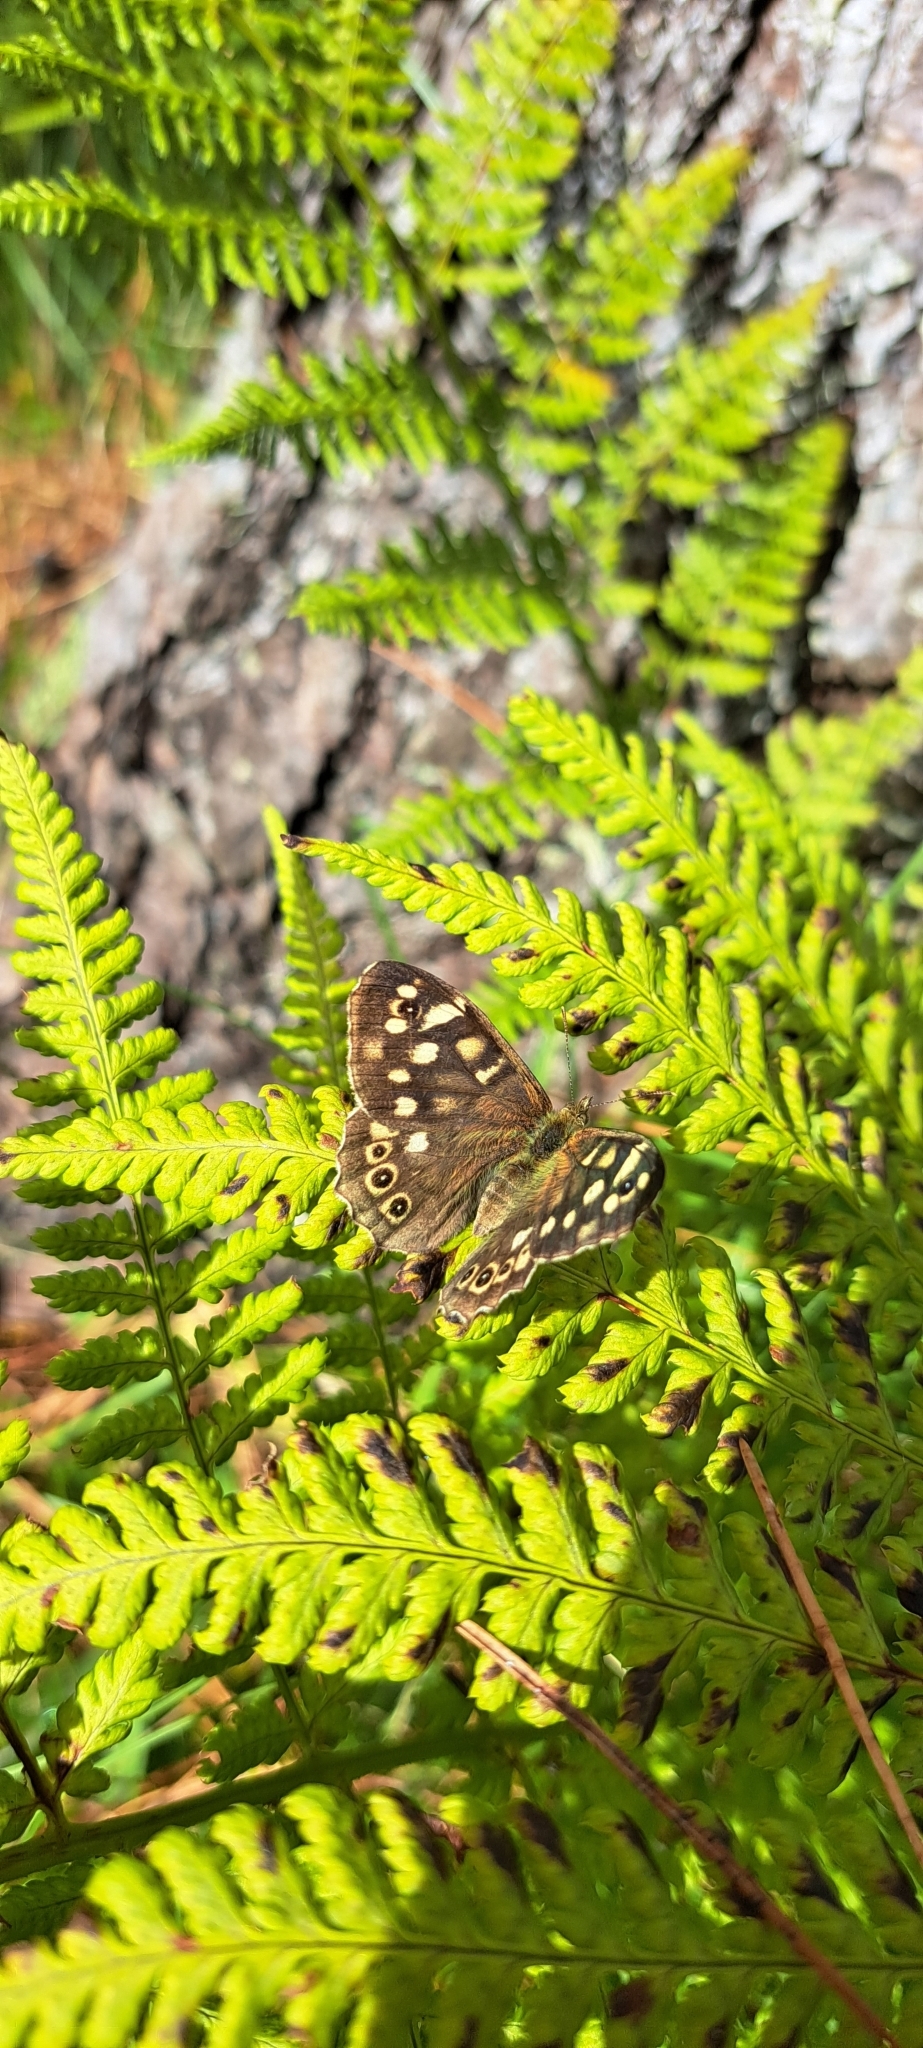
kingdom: Animalia
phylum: Arthropoda
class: Insecta
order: Lepidoptera
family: Nymphalidae
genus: Pararge
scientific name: Pararge aegeria
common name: Speckled wood
